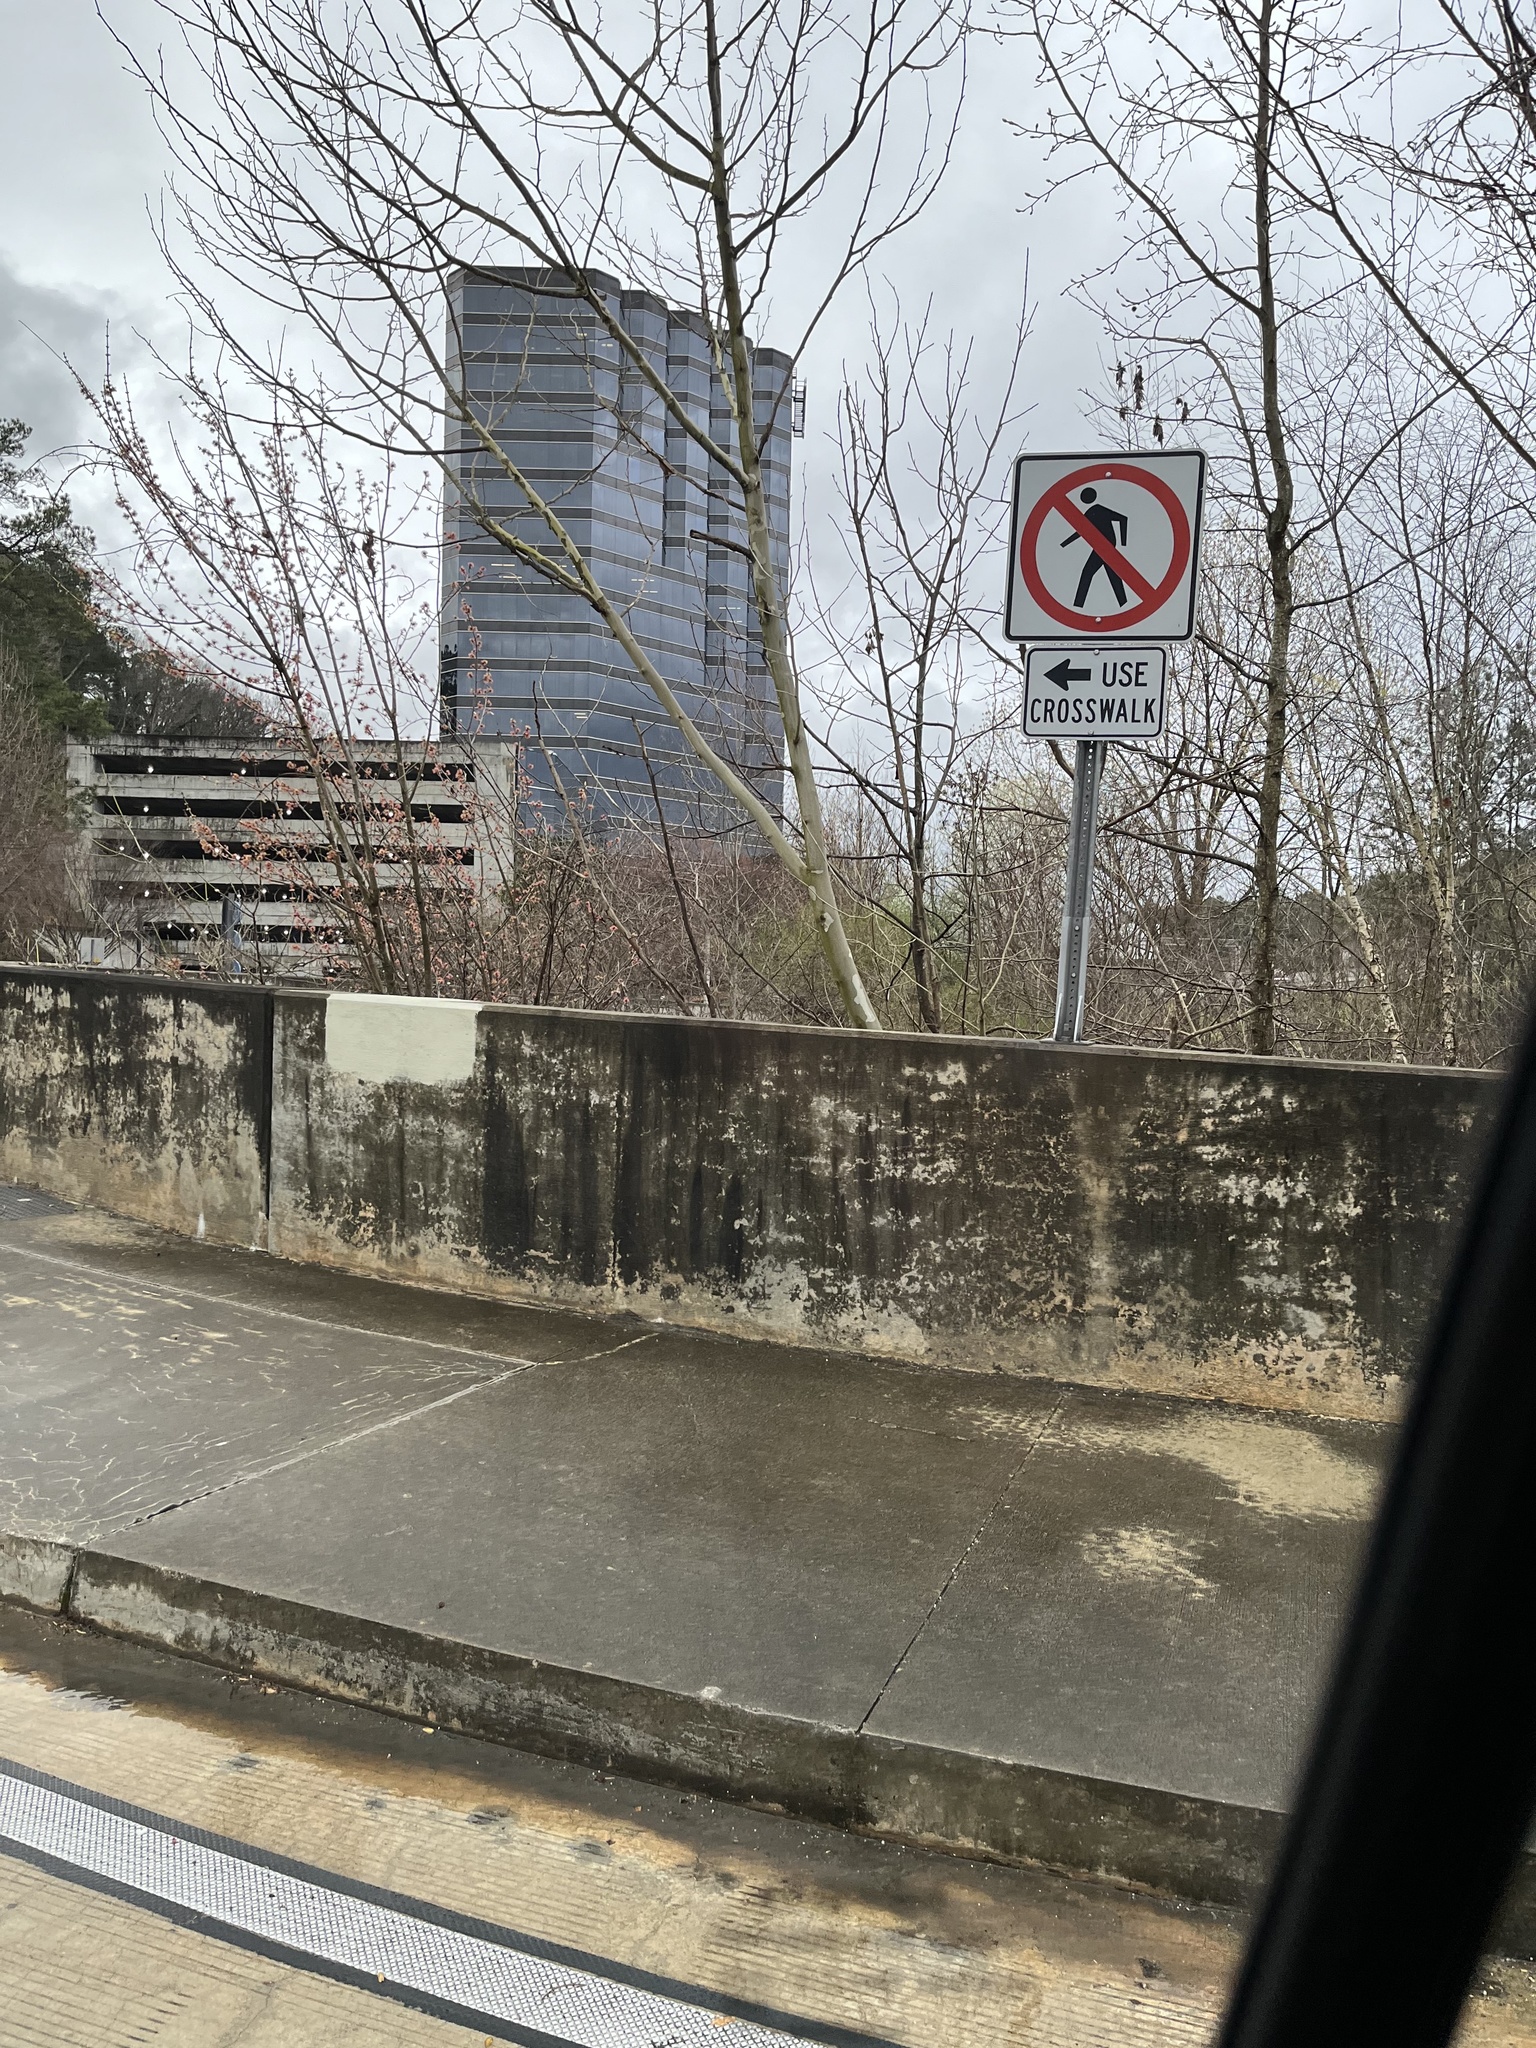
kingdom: Plantae
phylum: Tracheophyta
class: Magnoliopsida
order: Proteales
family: Platanaceae
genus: Platanus
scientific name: Platanus occidentalis
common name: American sycamore
